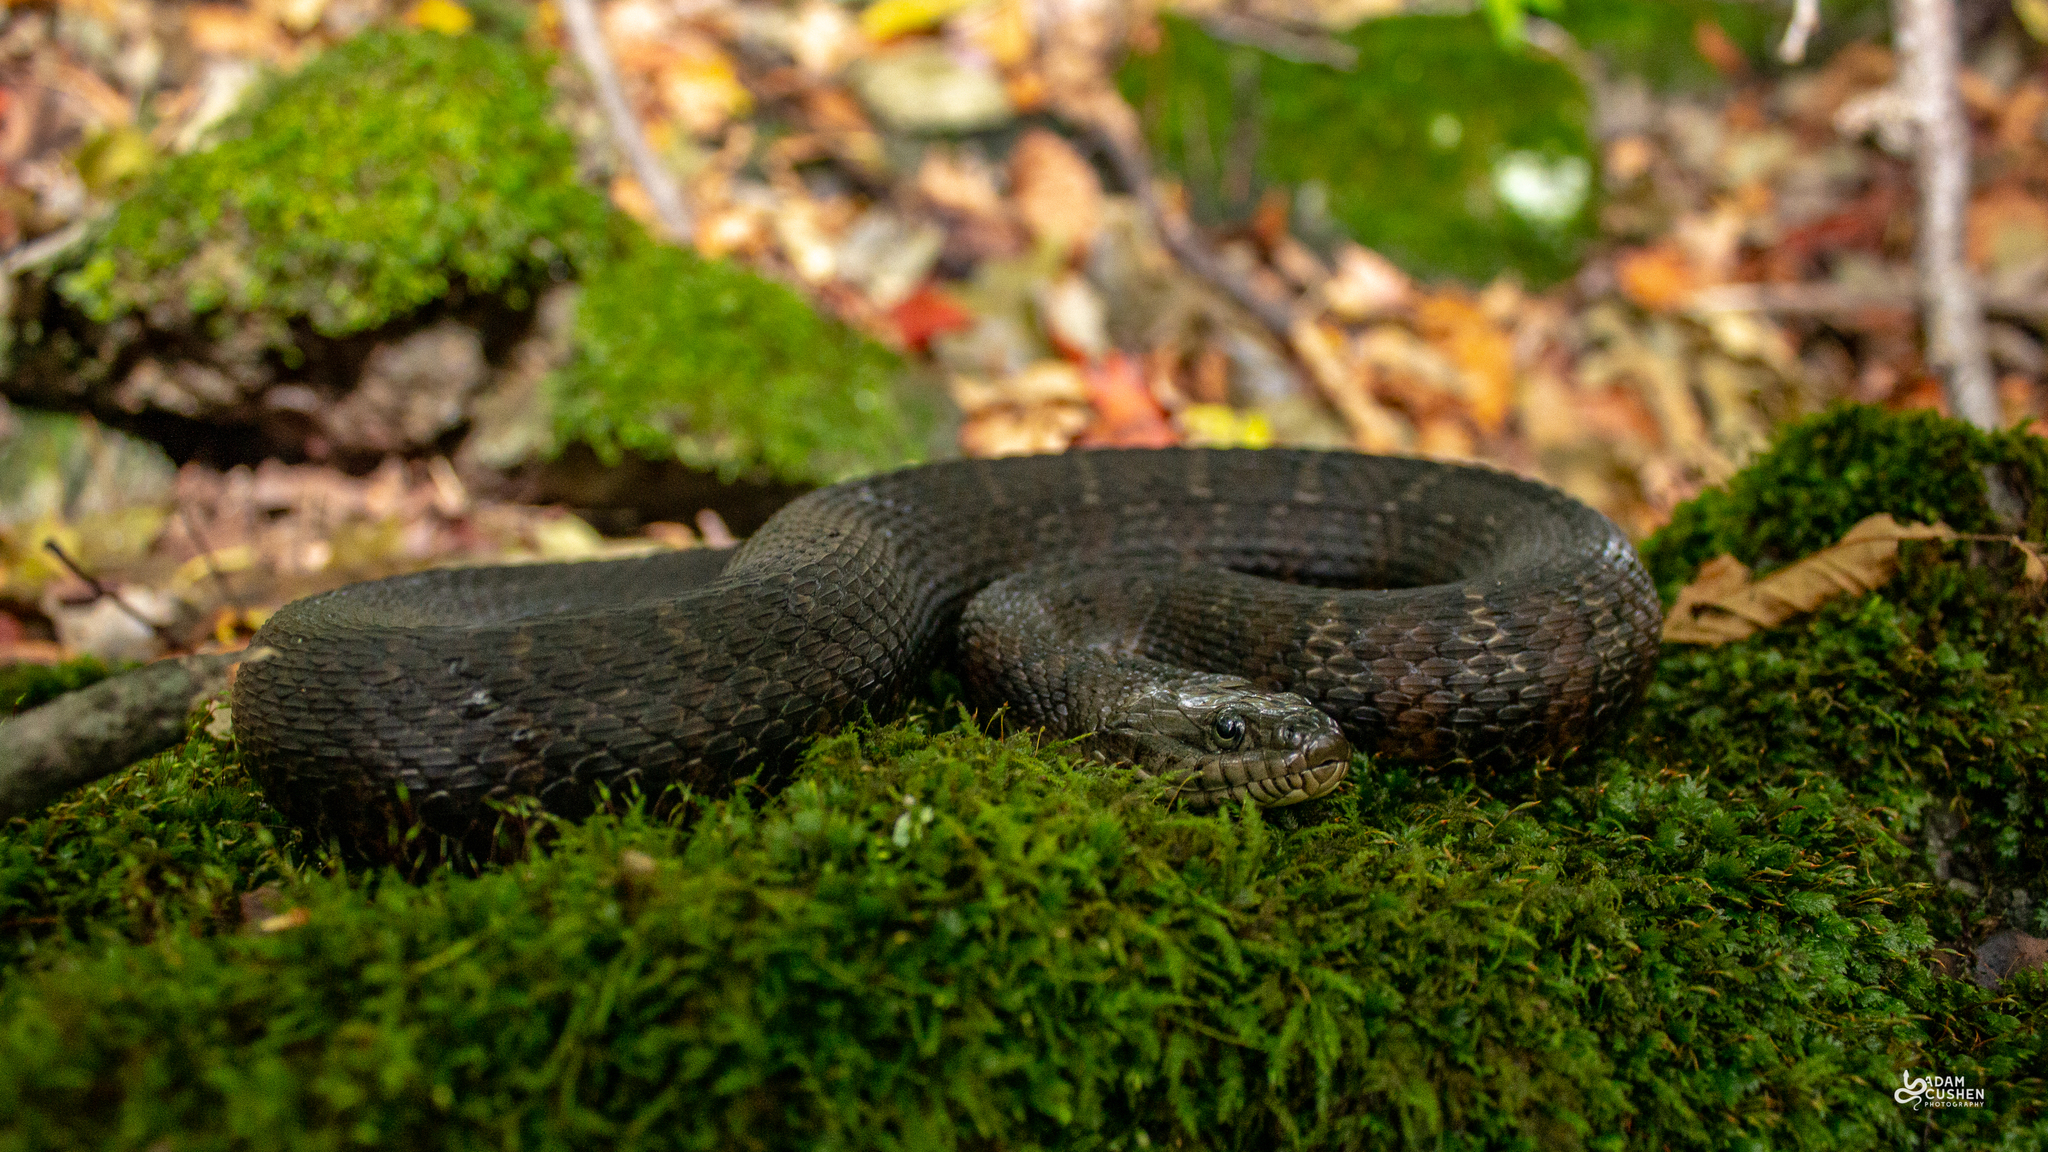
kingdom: Animalia
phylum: Chordata
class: Squamata
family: Colubridae
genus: Nerodia
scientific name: Nerodia sipedon
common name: Northern water snake
